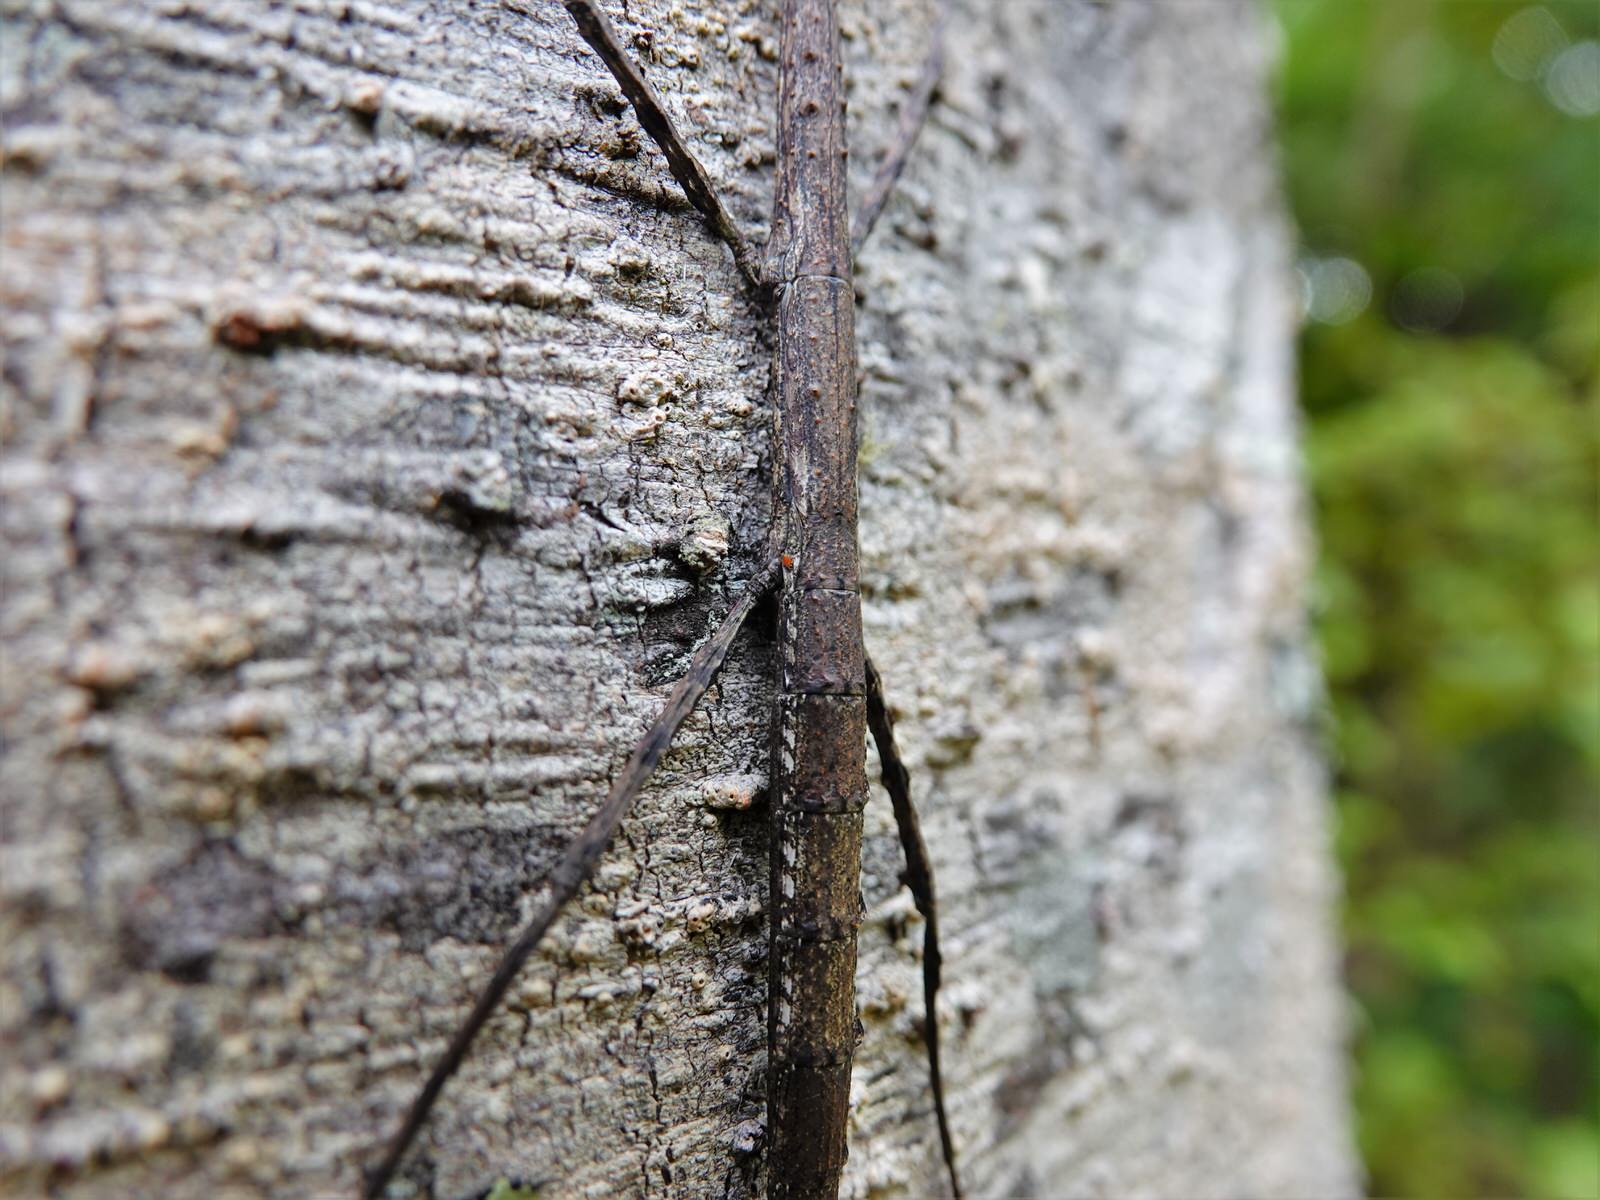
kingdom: Animalia
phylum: Arthropoda
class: Insecta
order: Phasmida
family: Phasmatidae
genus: Clitarchus
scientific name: Clitarchus hookeri
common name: Smooth stick insect
